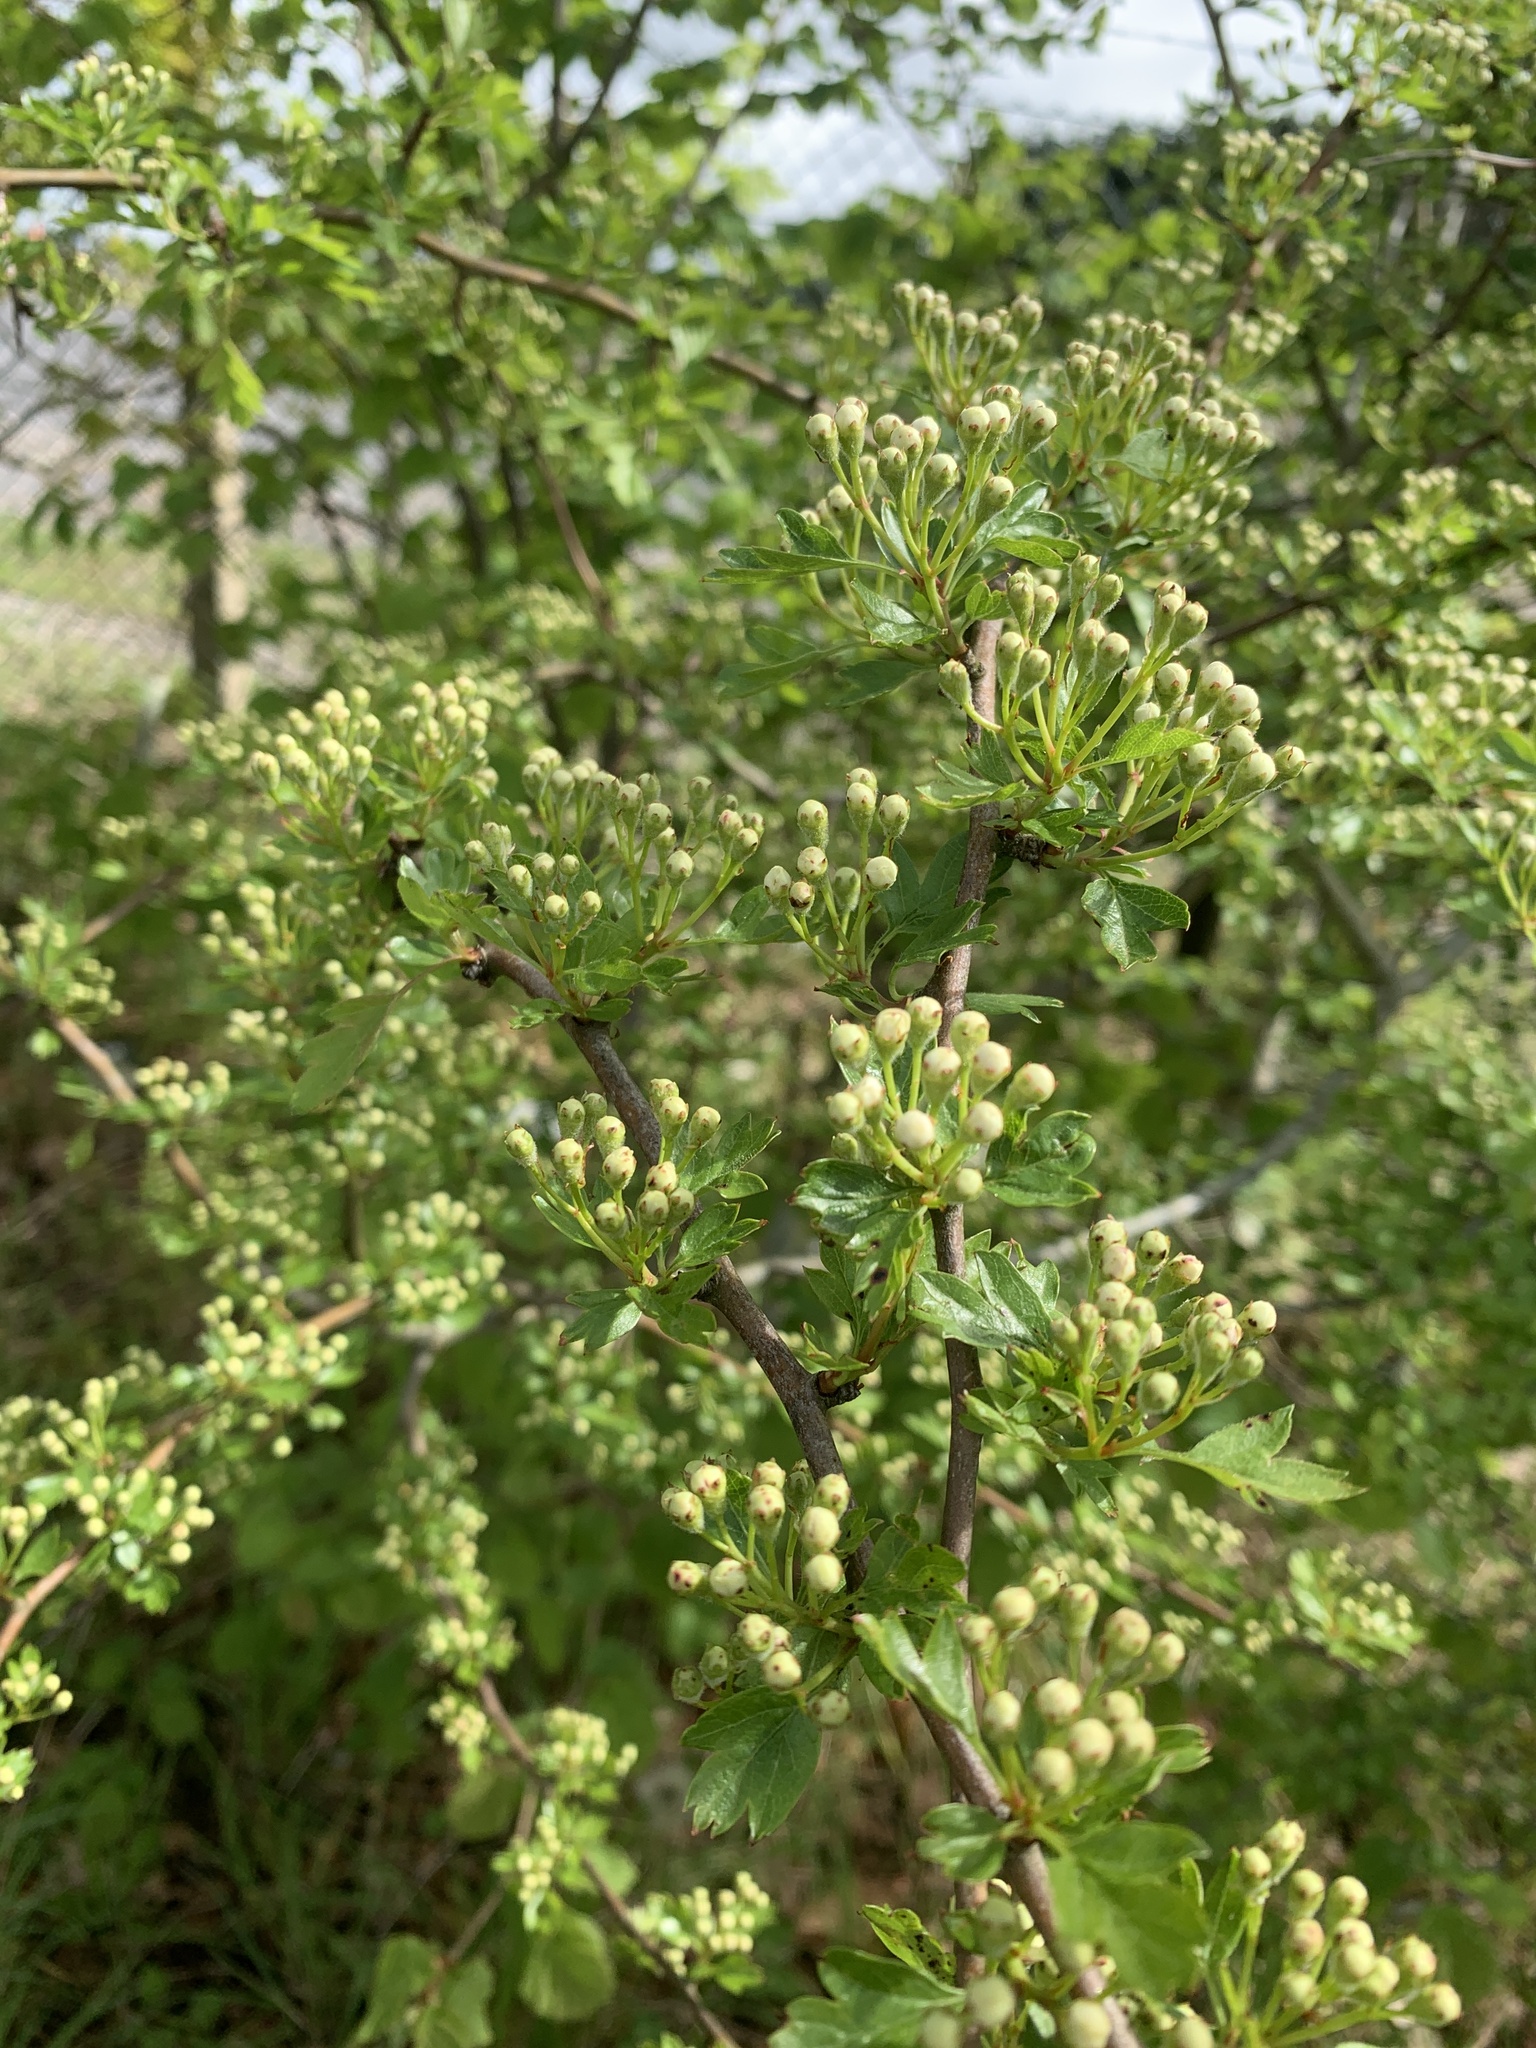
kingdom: Plantae
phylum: Tracheophyta
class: Magnoliopsida
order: Rosales
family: Rosaceae
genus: Crataegus
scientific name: Crataegus monogyna
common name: Hawthorn
